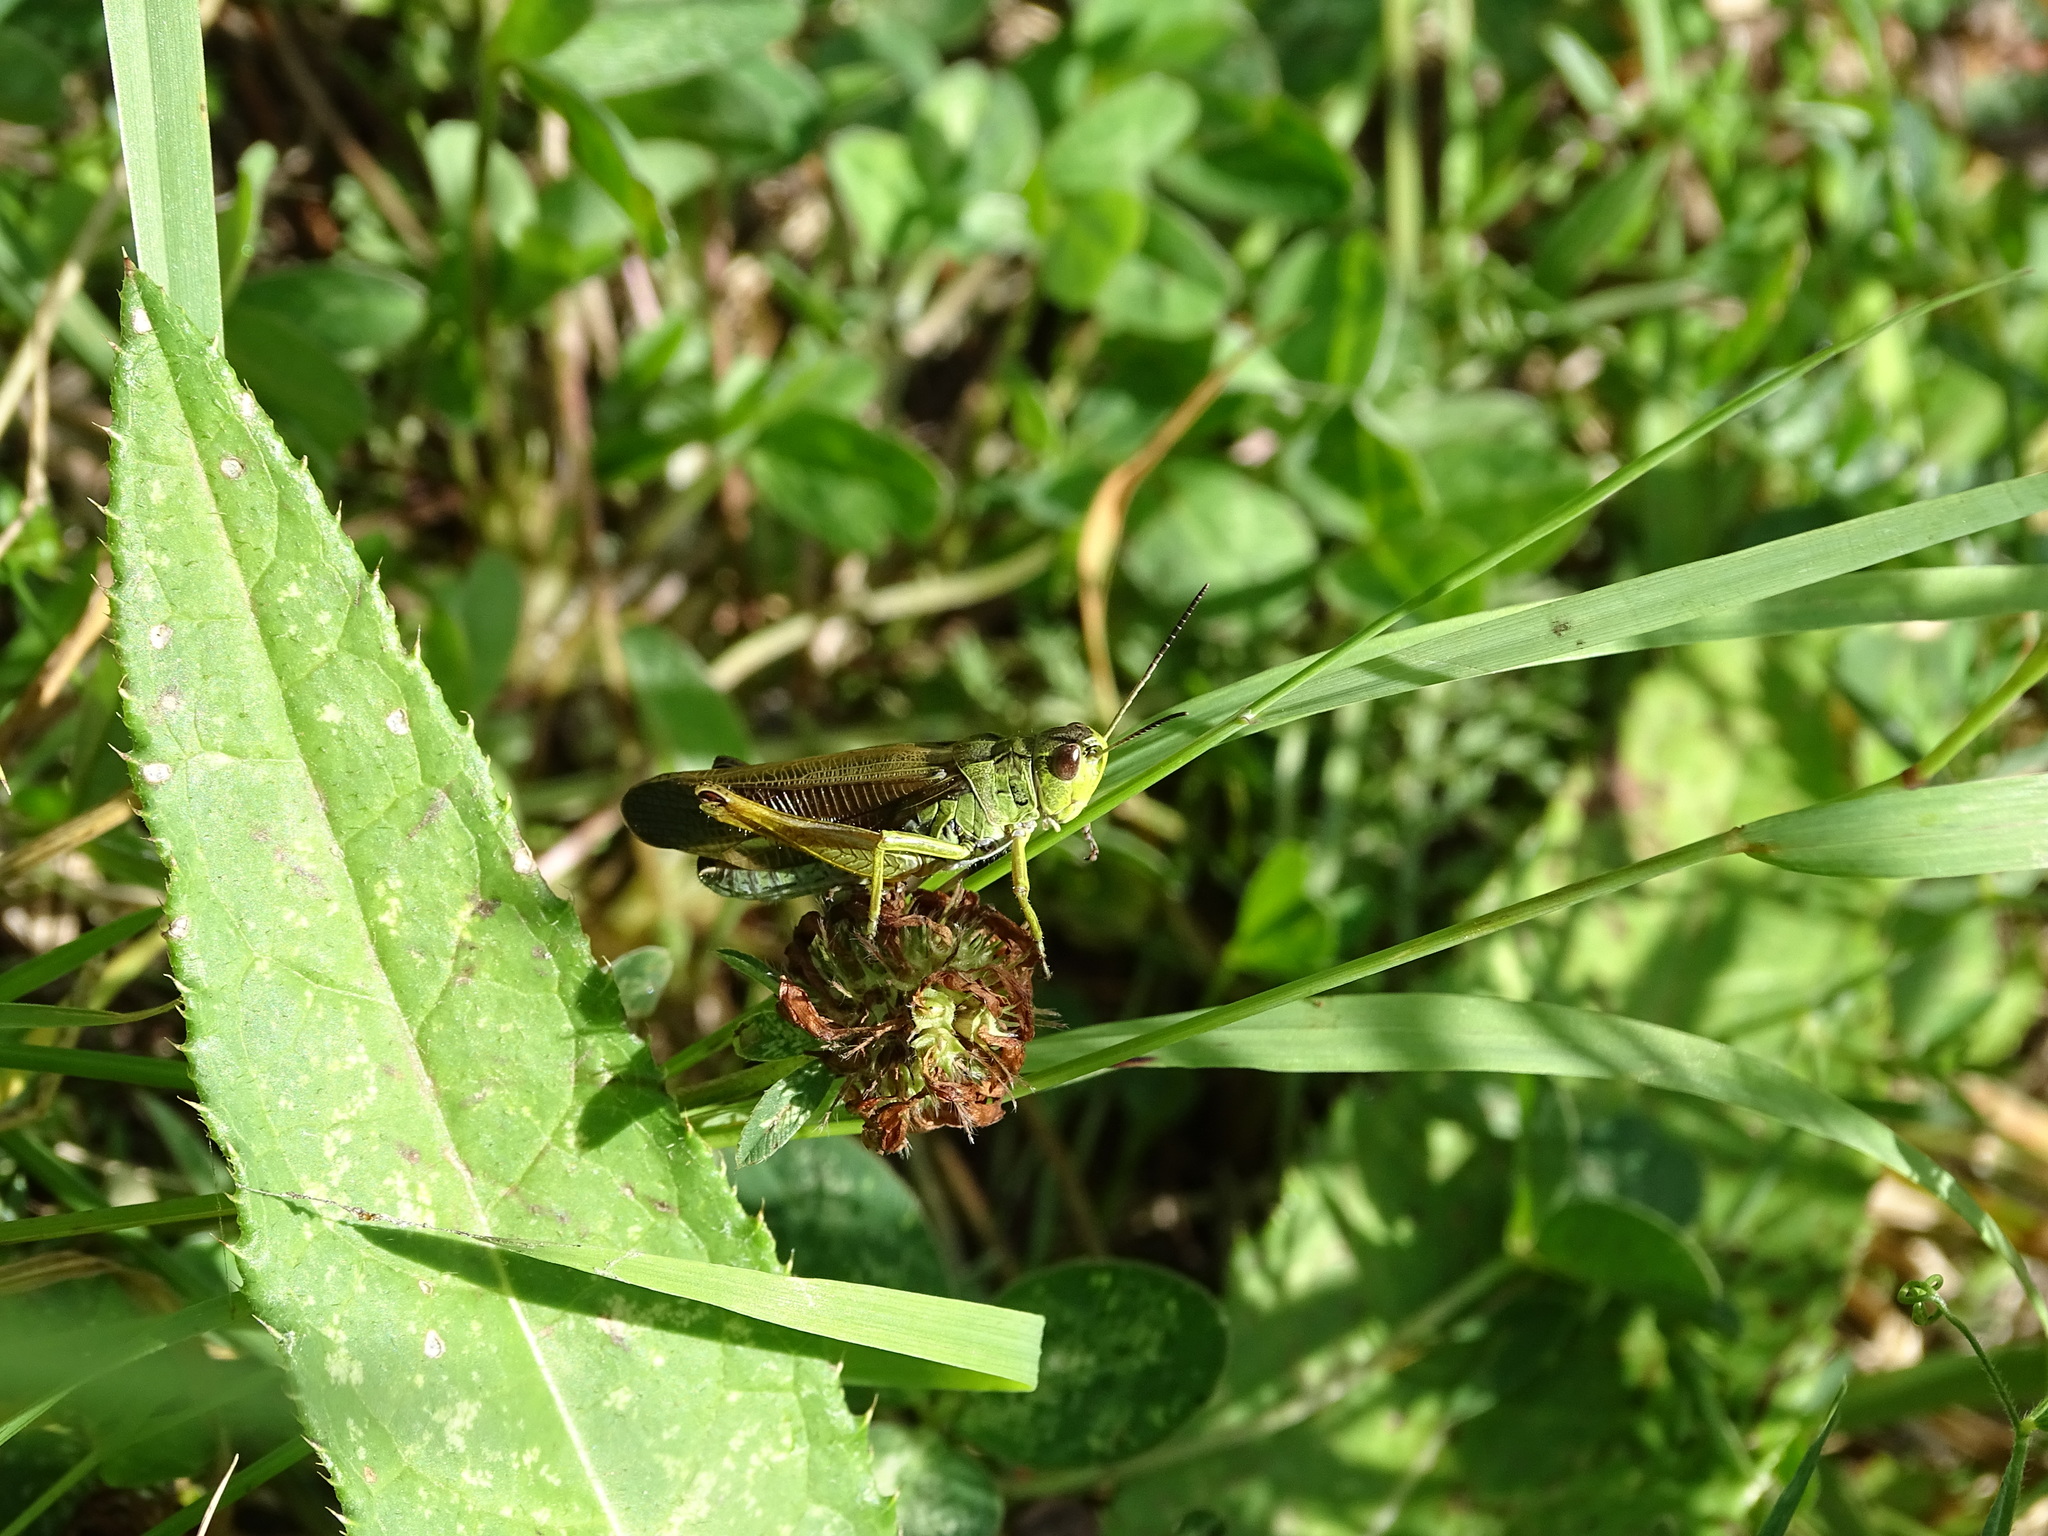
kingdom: Animalia
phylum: Arthropoda
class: Insecta
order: Orthoptera
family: Acrididae
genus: Stauroderus
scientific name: Stauroderus scalaris
